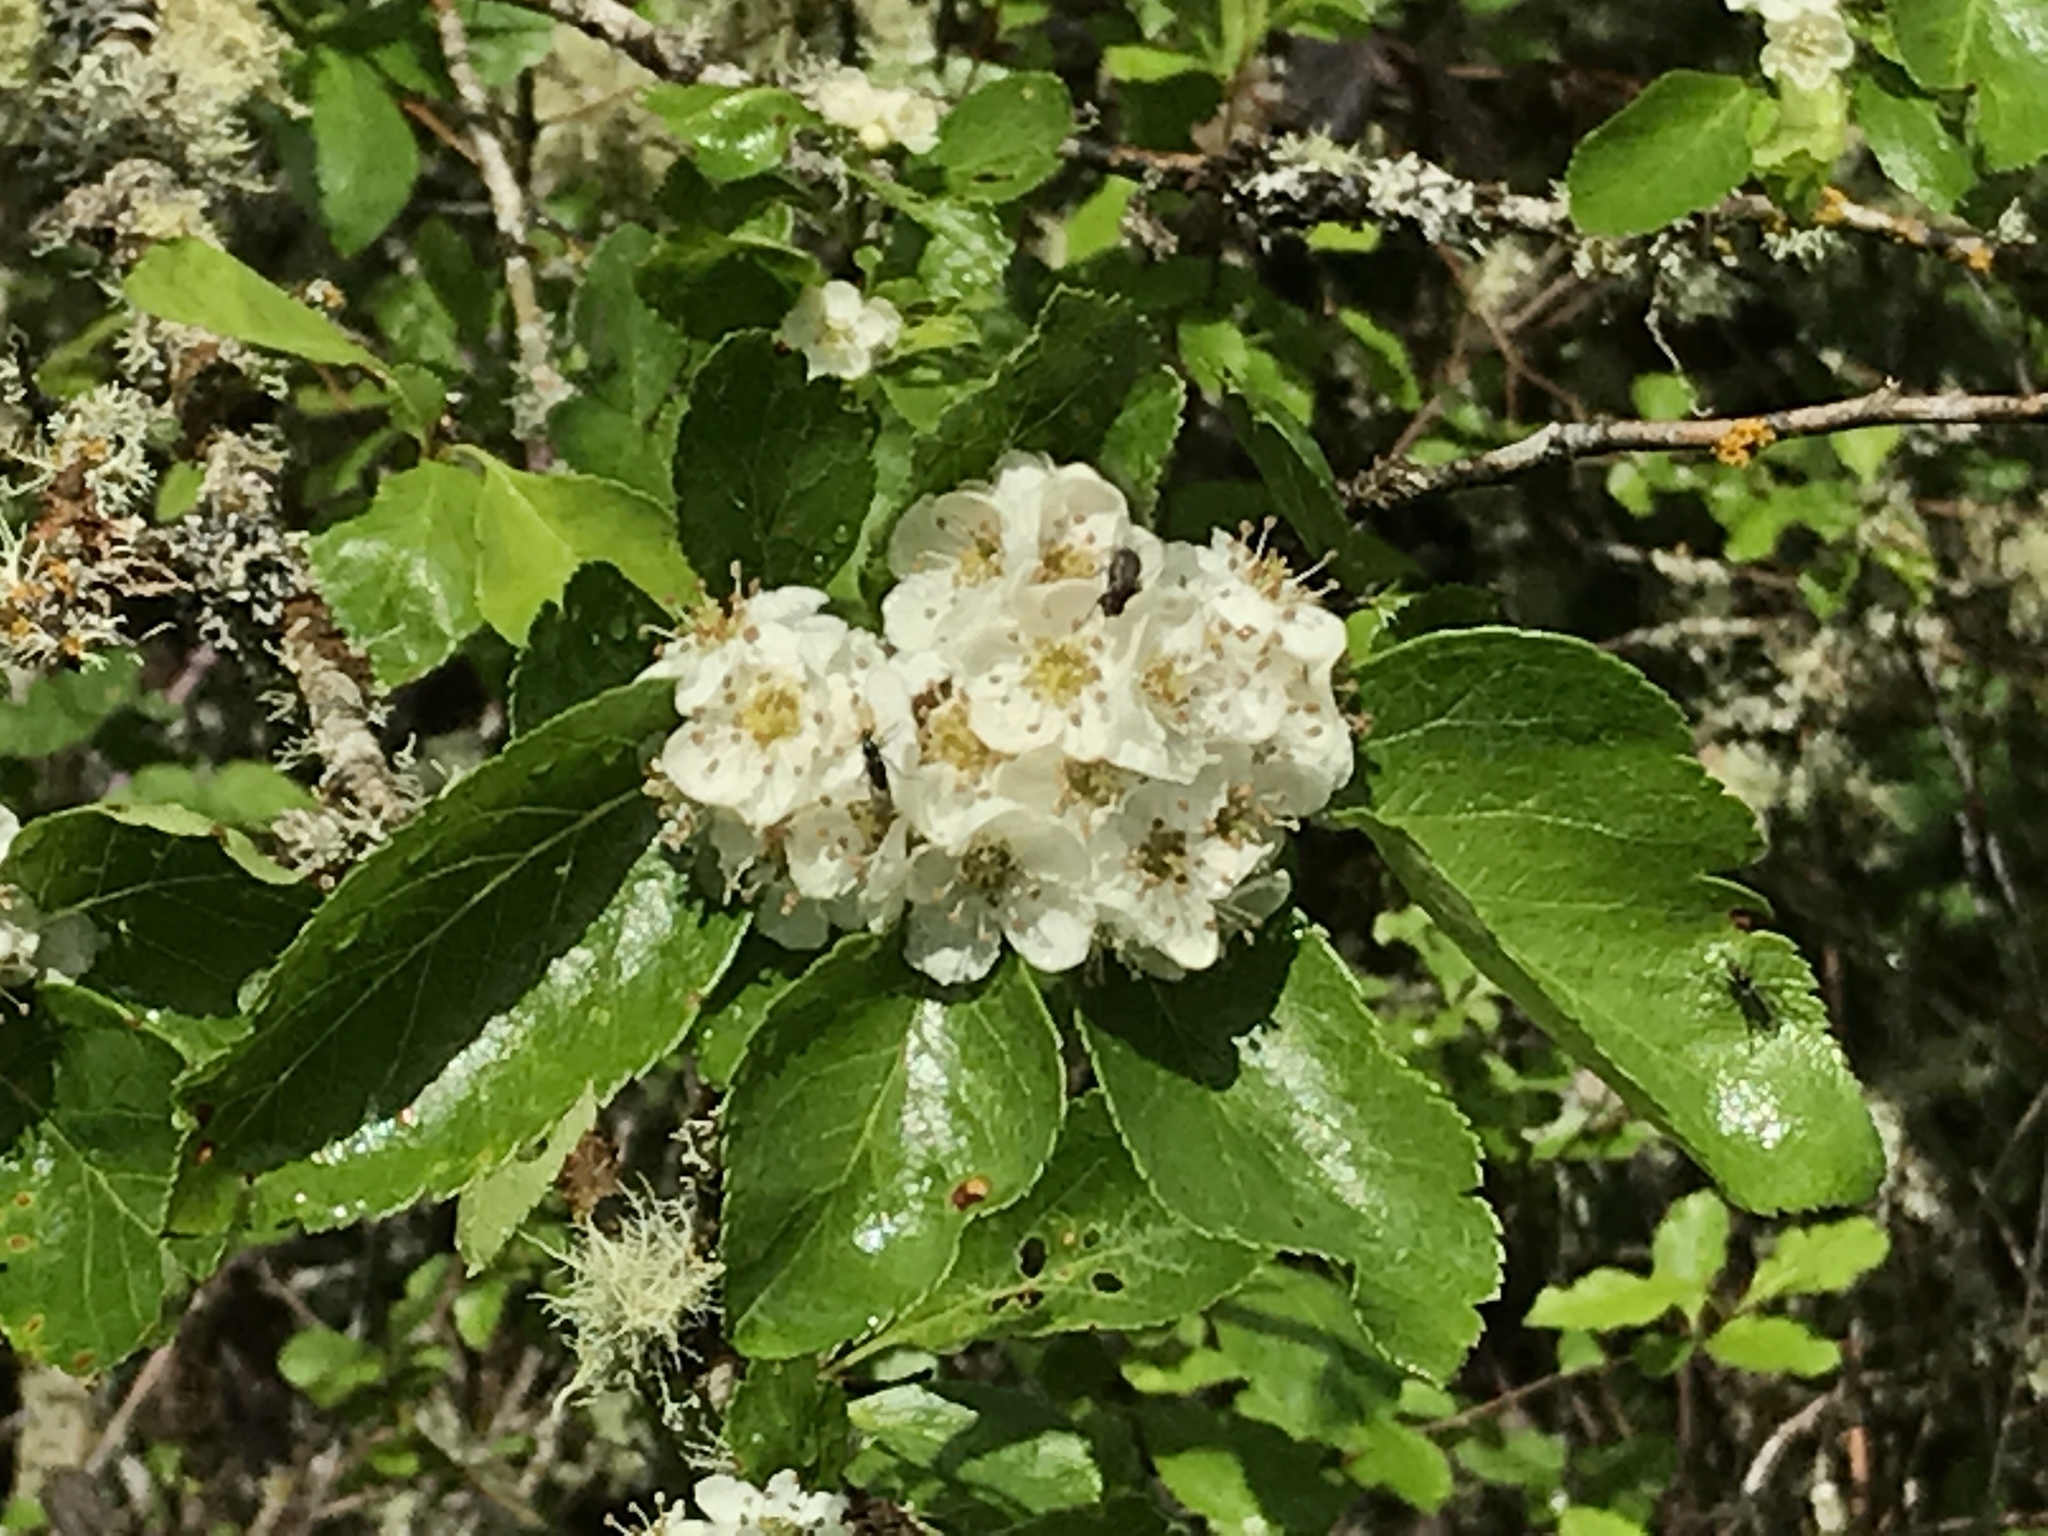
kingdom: Plantae
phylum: Tracheophyta
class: Magnoliopsida
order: Rosales
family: Rosaceae
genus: Crataegus
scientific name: Crataegus gaylussacia
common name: Huckleberry hawthorn
